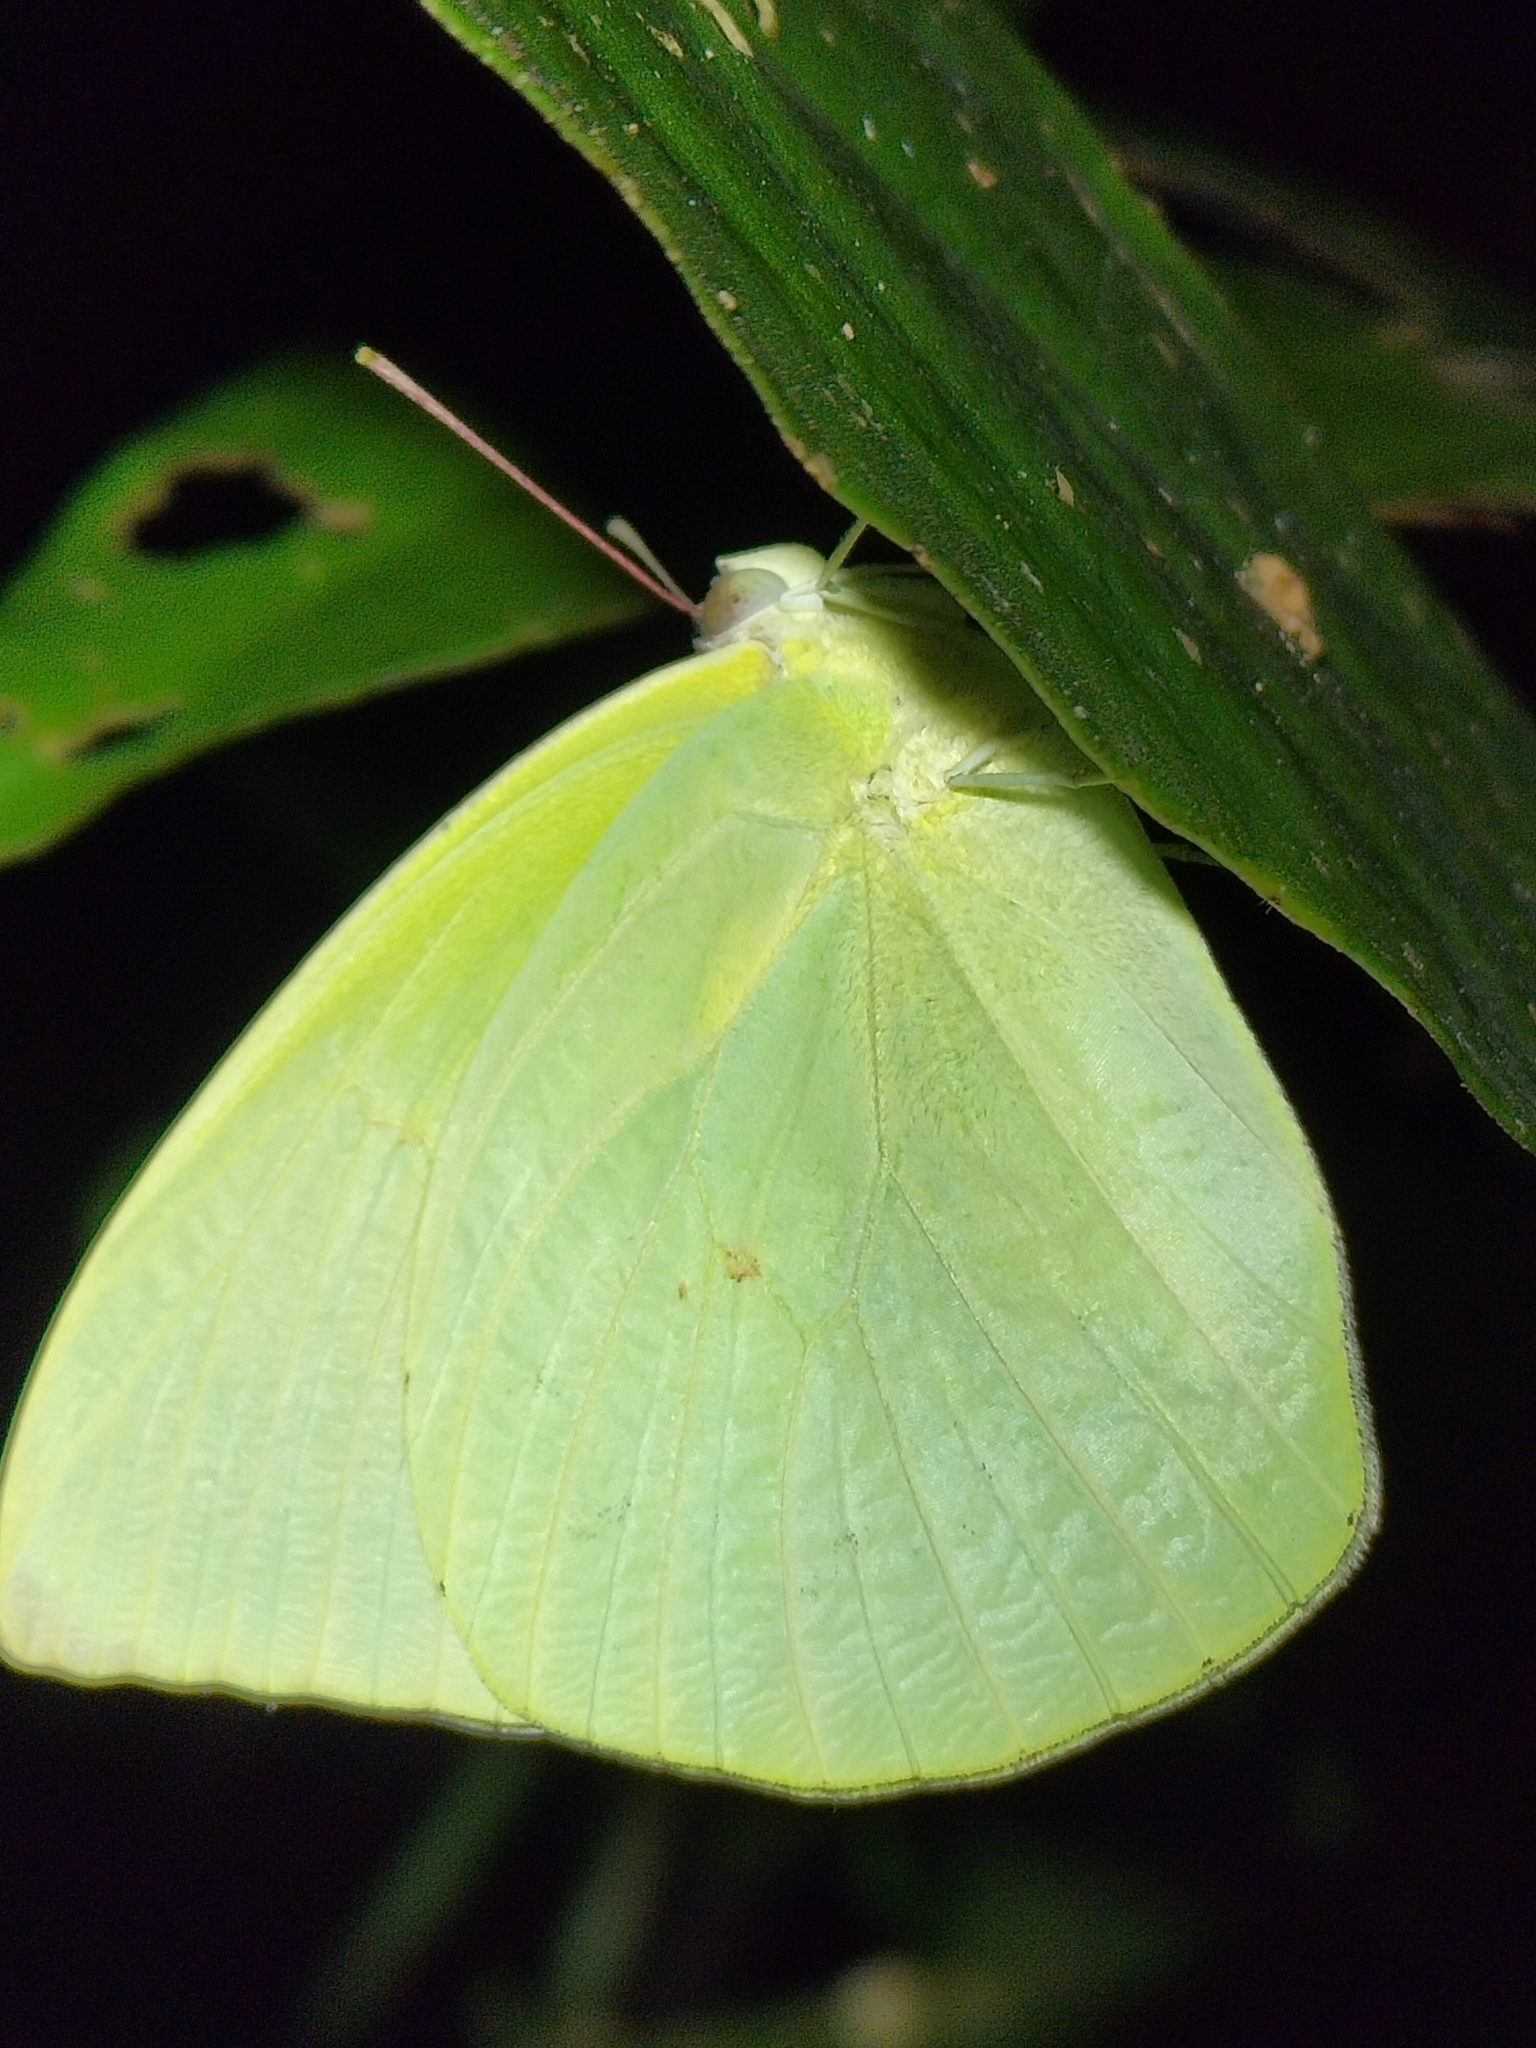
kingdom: Animalia
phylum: Arthropoda
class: Insecta
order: Lepidoptera
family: Pieridae
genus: Catopsilia
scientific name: Catopsilia pomona
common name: Common emigrant
